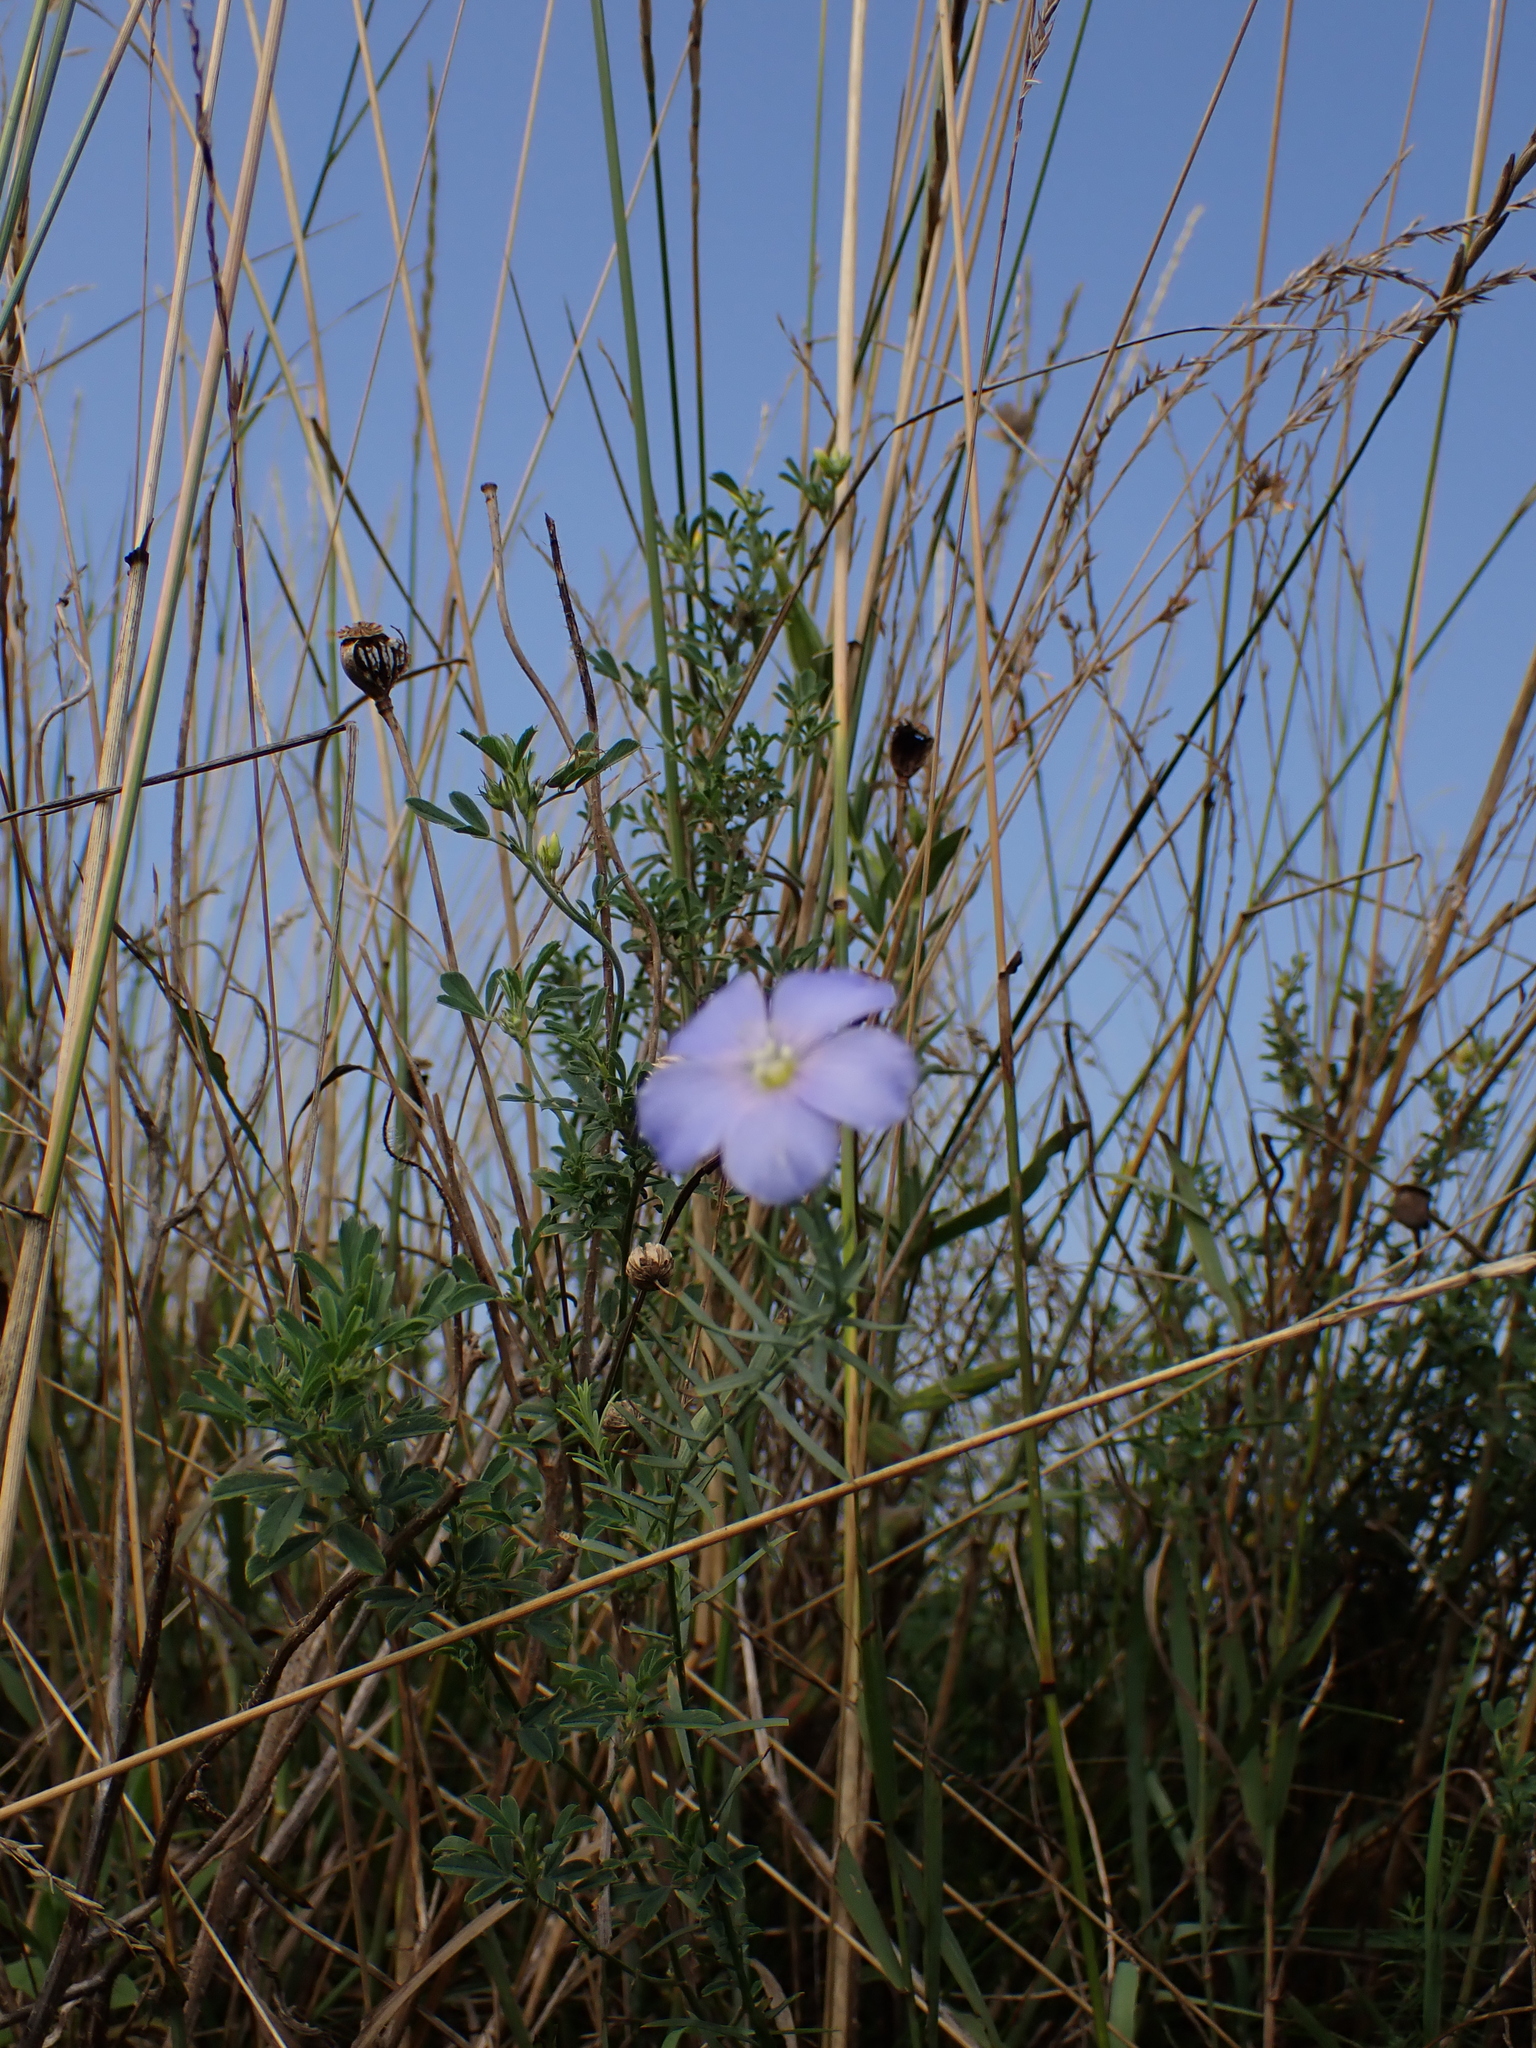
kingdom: Plantae
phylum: Tracheophyta
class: Magnoliopsida
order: Malpighiales
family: Linaceae
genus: Linum
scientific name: Linum austriacum
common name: Austrian flax
